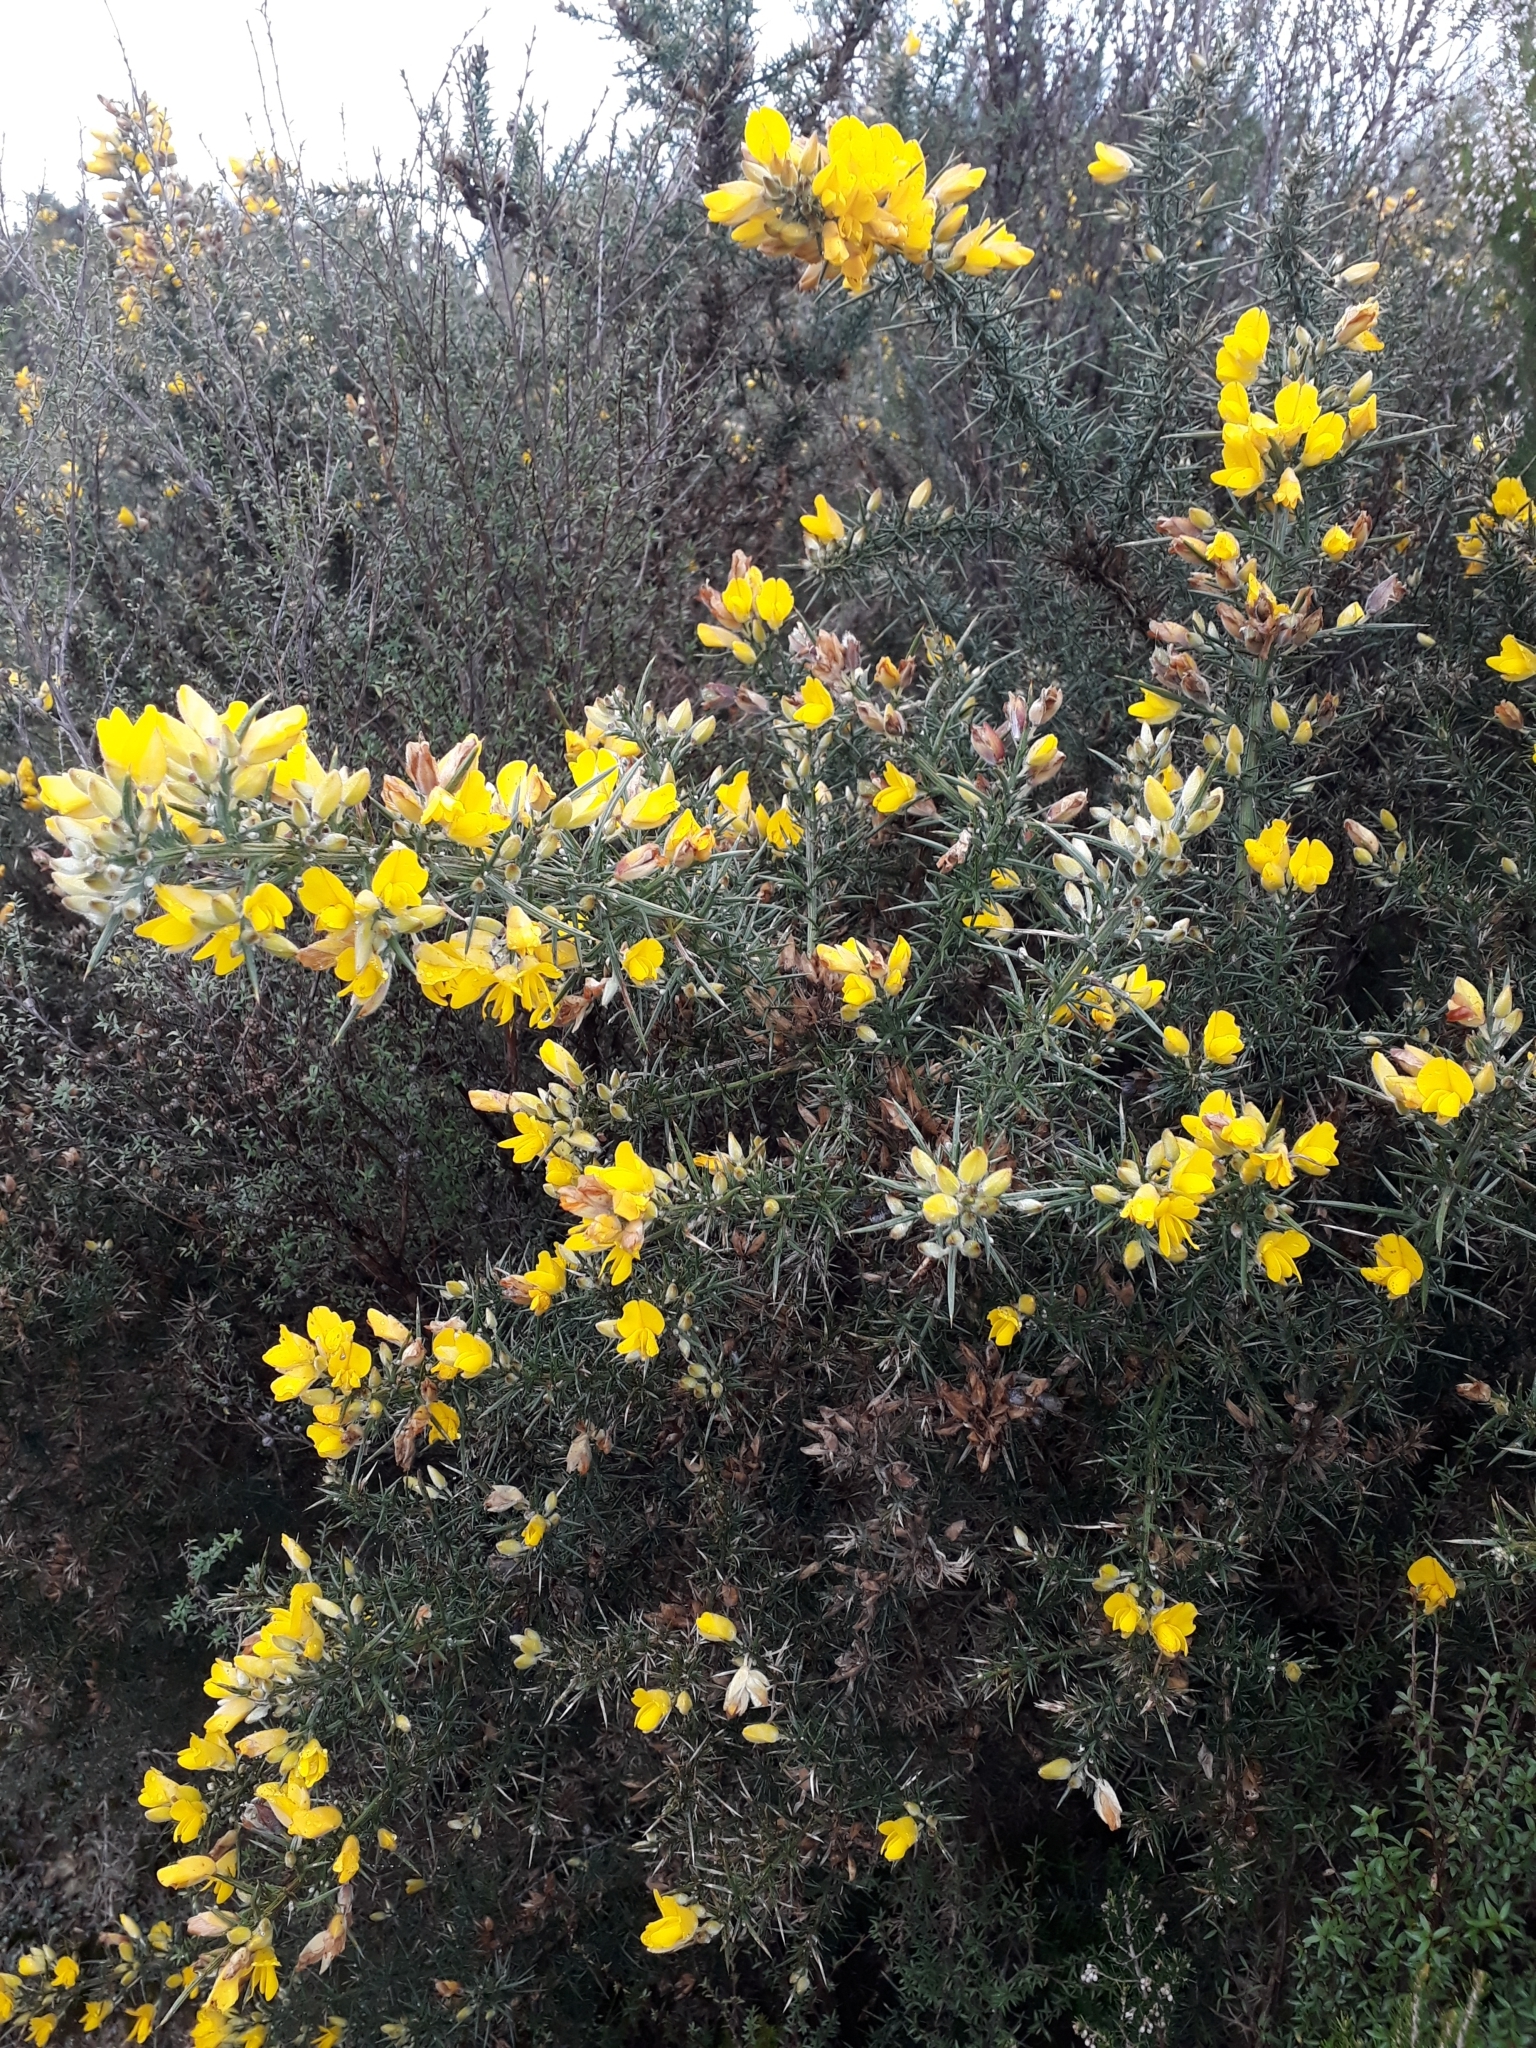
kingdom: Plantae
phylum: Tracheophyta
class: Magnoliopsida
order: Fabales
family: Fabaceae
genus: Ulex
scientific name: Ulex europaeus
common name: Common gorse
